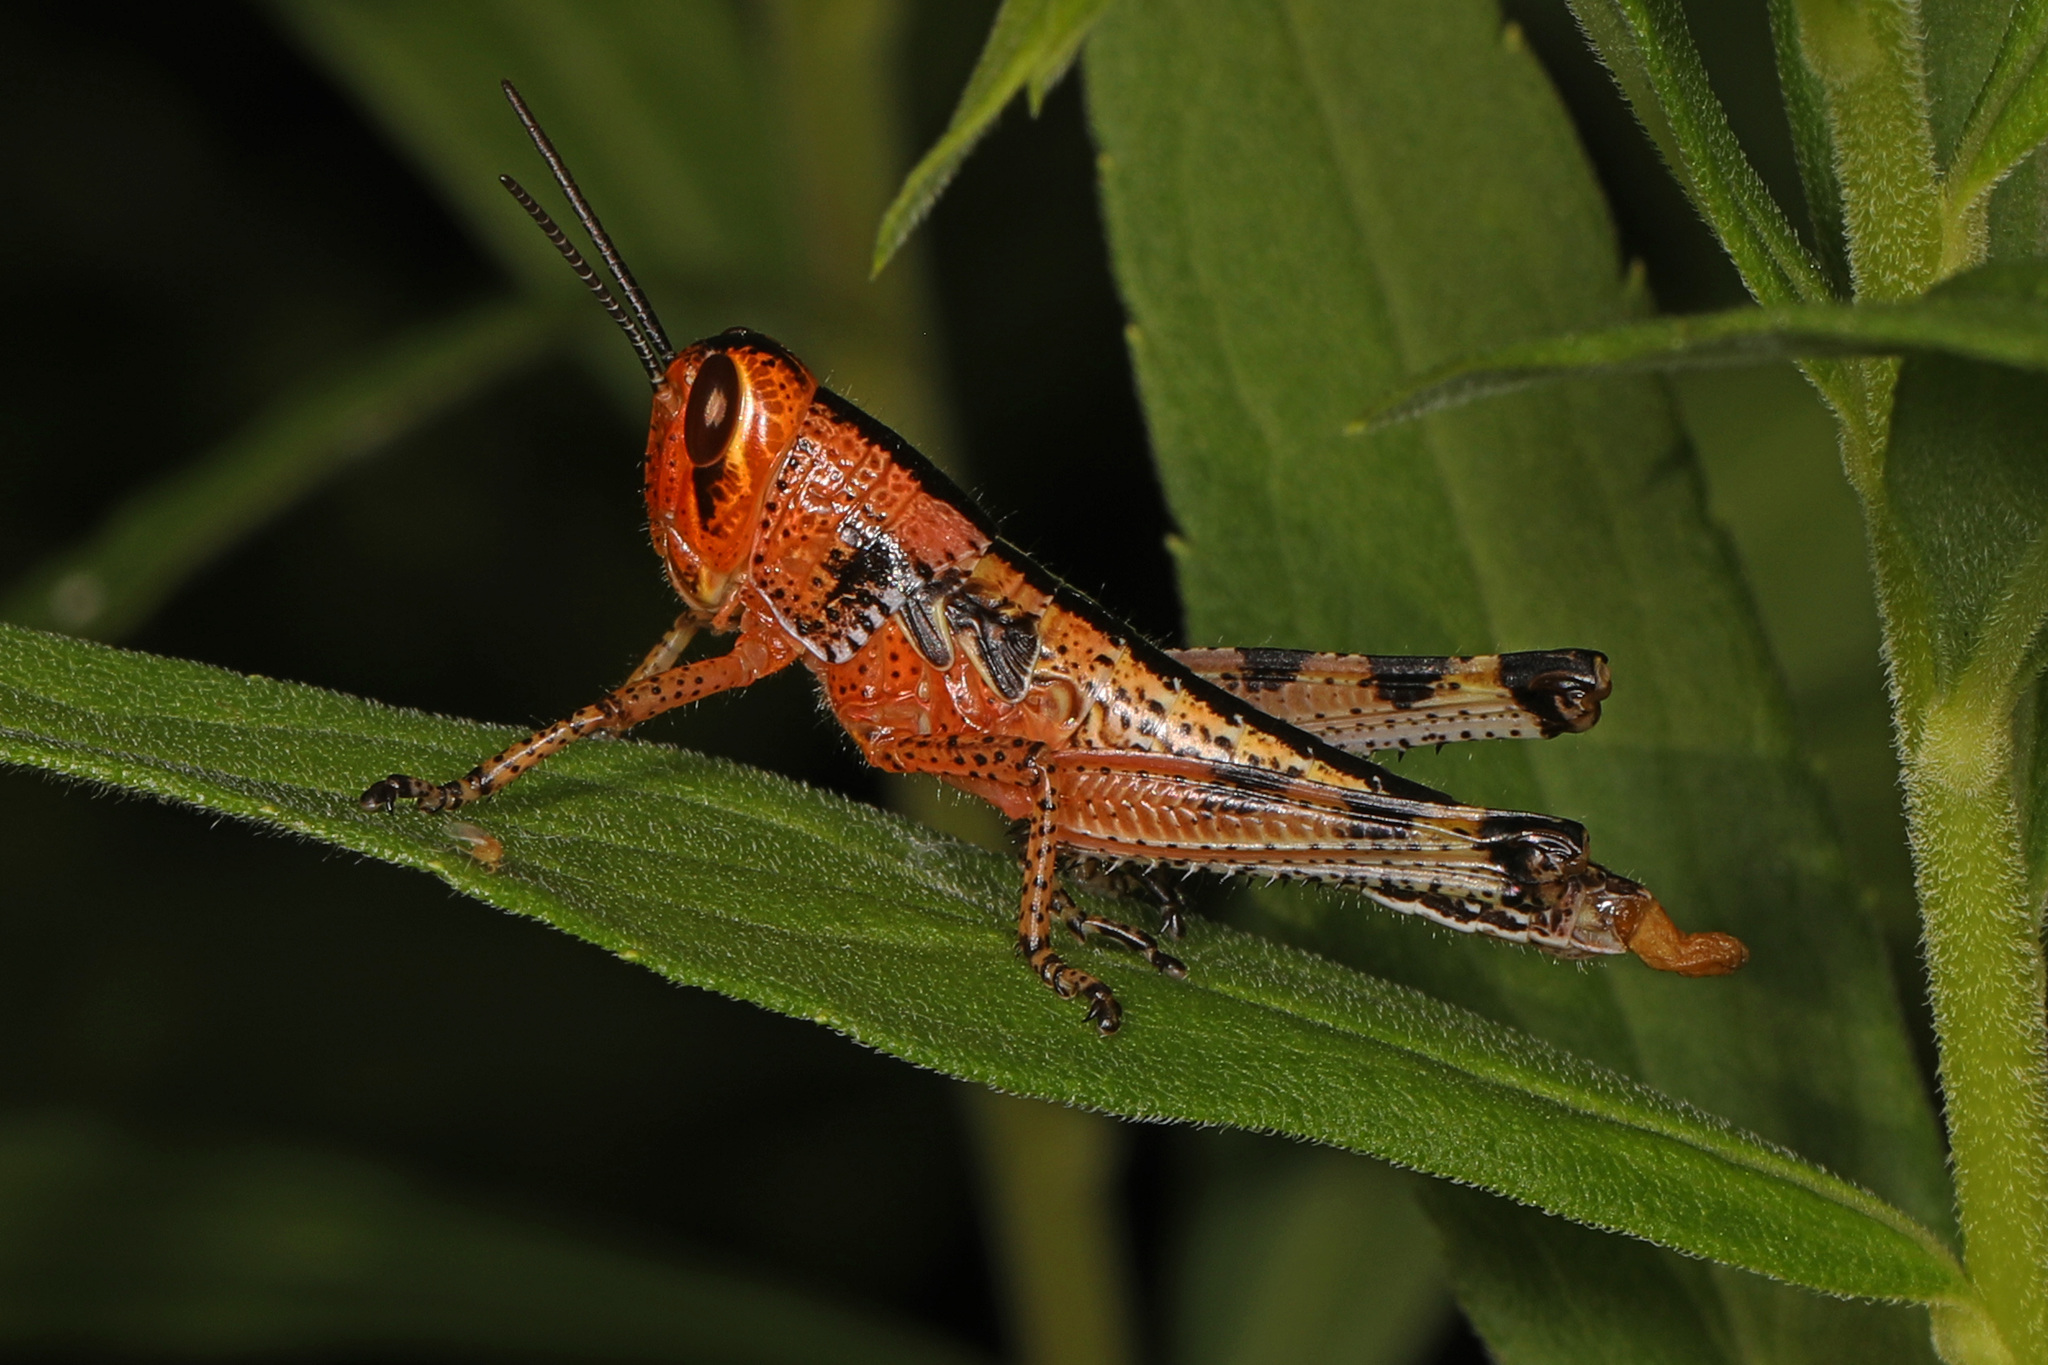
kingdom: Animalia
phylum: Arthropoda
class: Insecta
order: Orthoptera
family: Acrididae
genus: Schistocerca
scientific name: Schistocerca americana
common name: American bird locust
